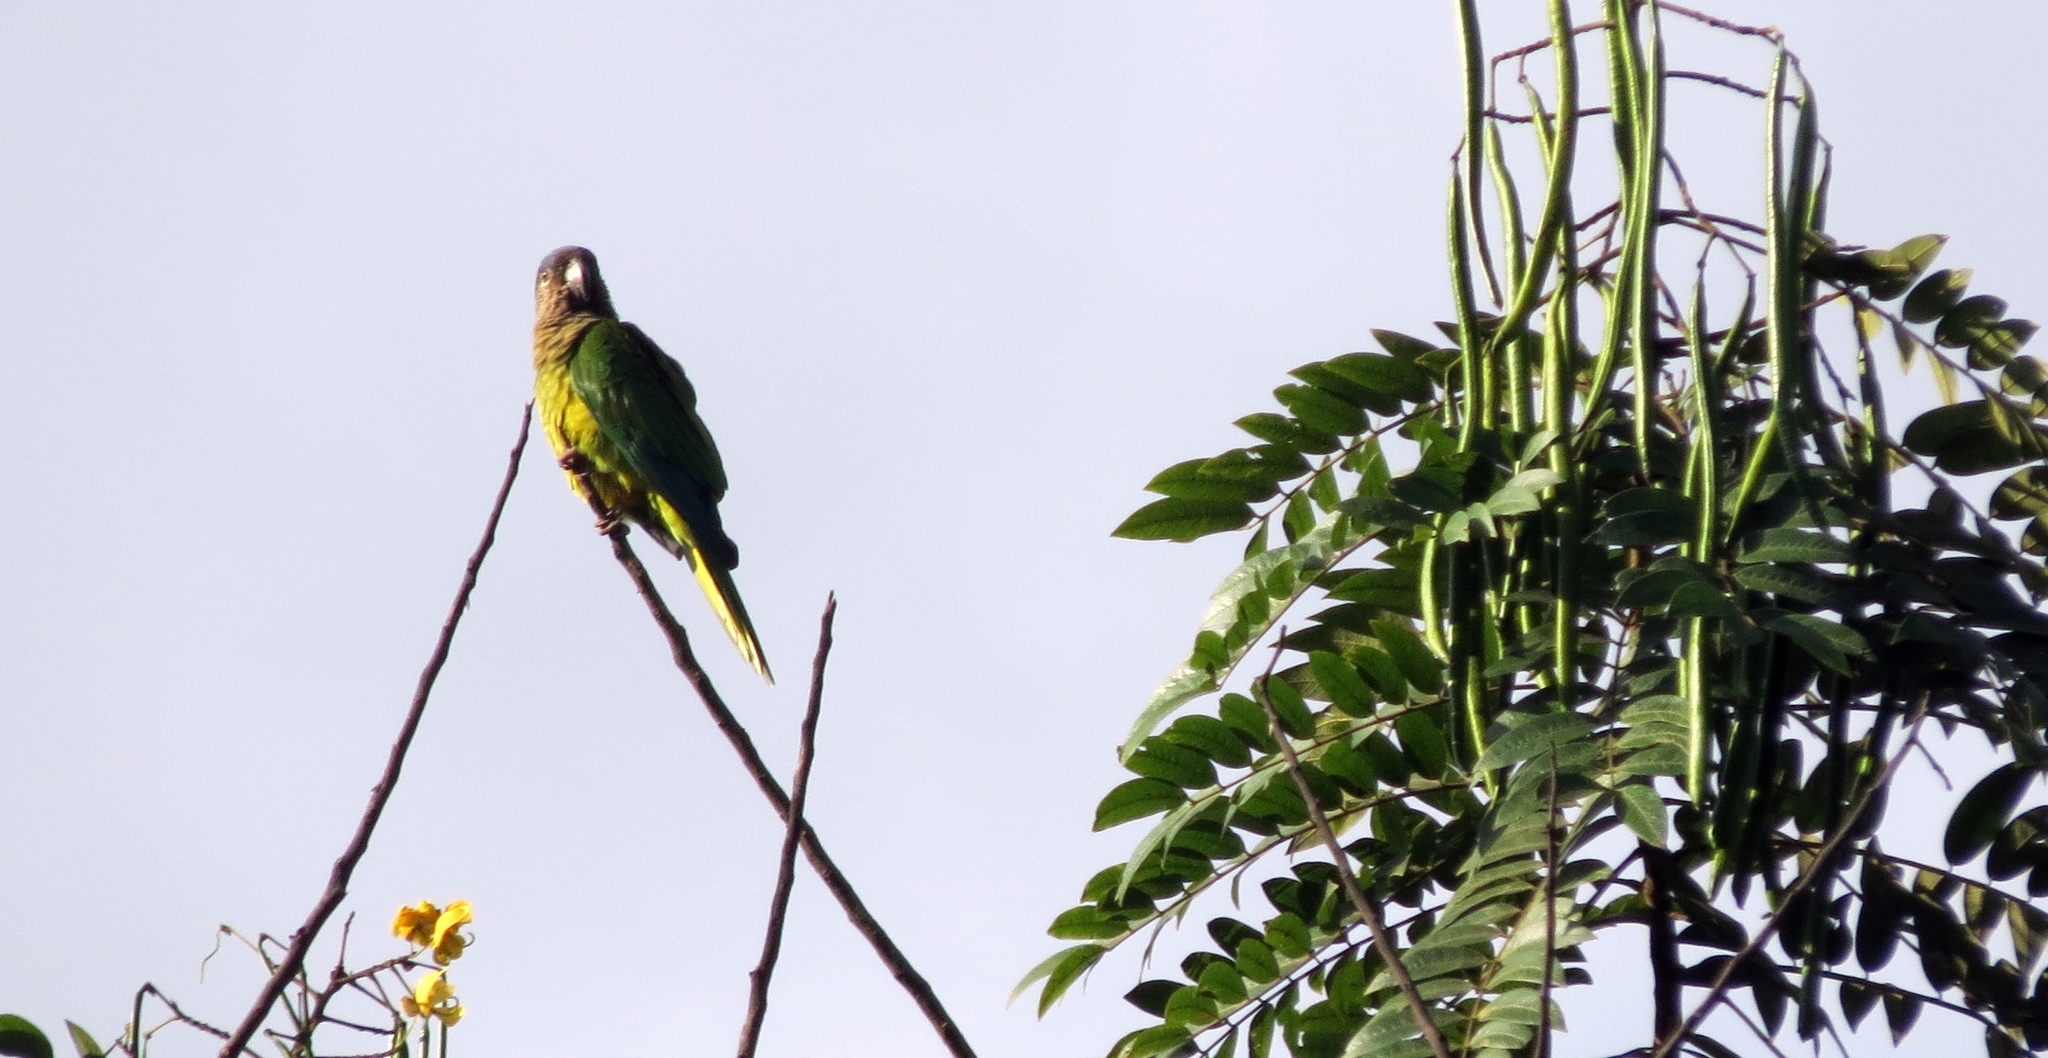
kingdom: Animalia
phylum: Chordata
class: Aves
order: Psittaciformes
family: Psittacidae
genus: Aratinga
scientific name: Aratinga pertinax
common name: Brown-throated parakeet
